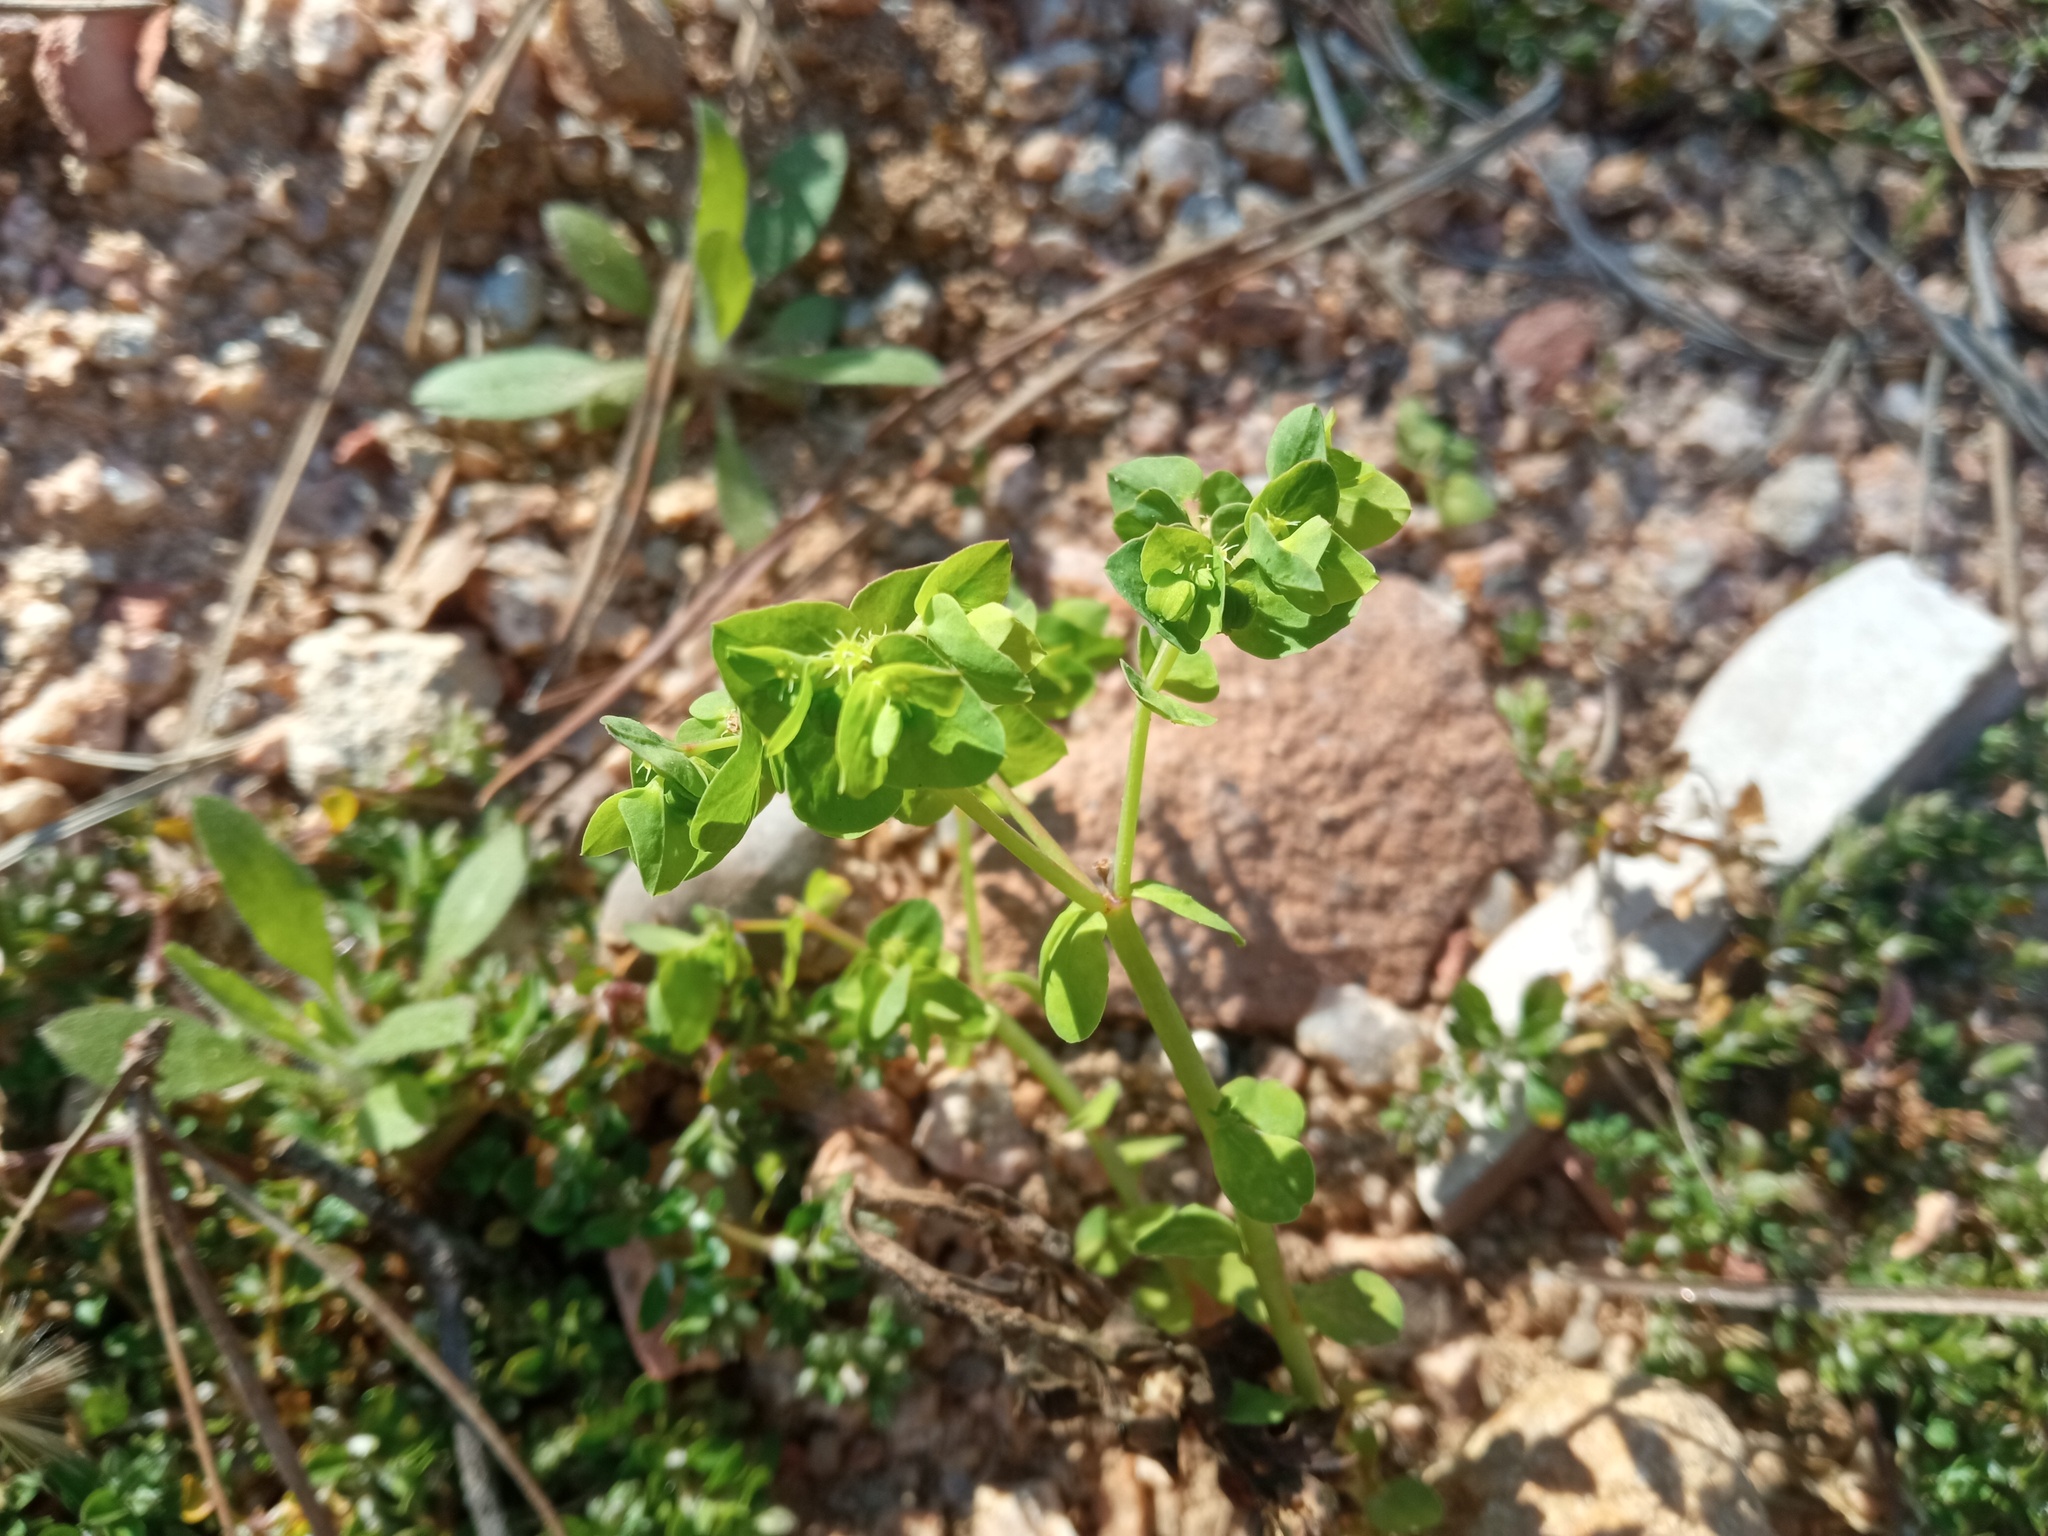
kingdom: Plantae
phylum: Tracheophyta
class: Magnoliopsida
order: Malpighiales
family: Euphorbiaceae
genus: Euphorbia
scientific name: Euphorbia peplus
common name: Petty spurge
